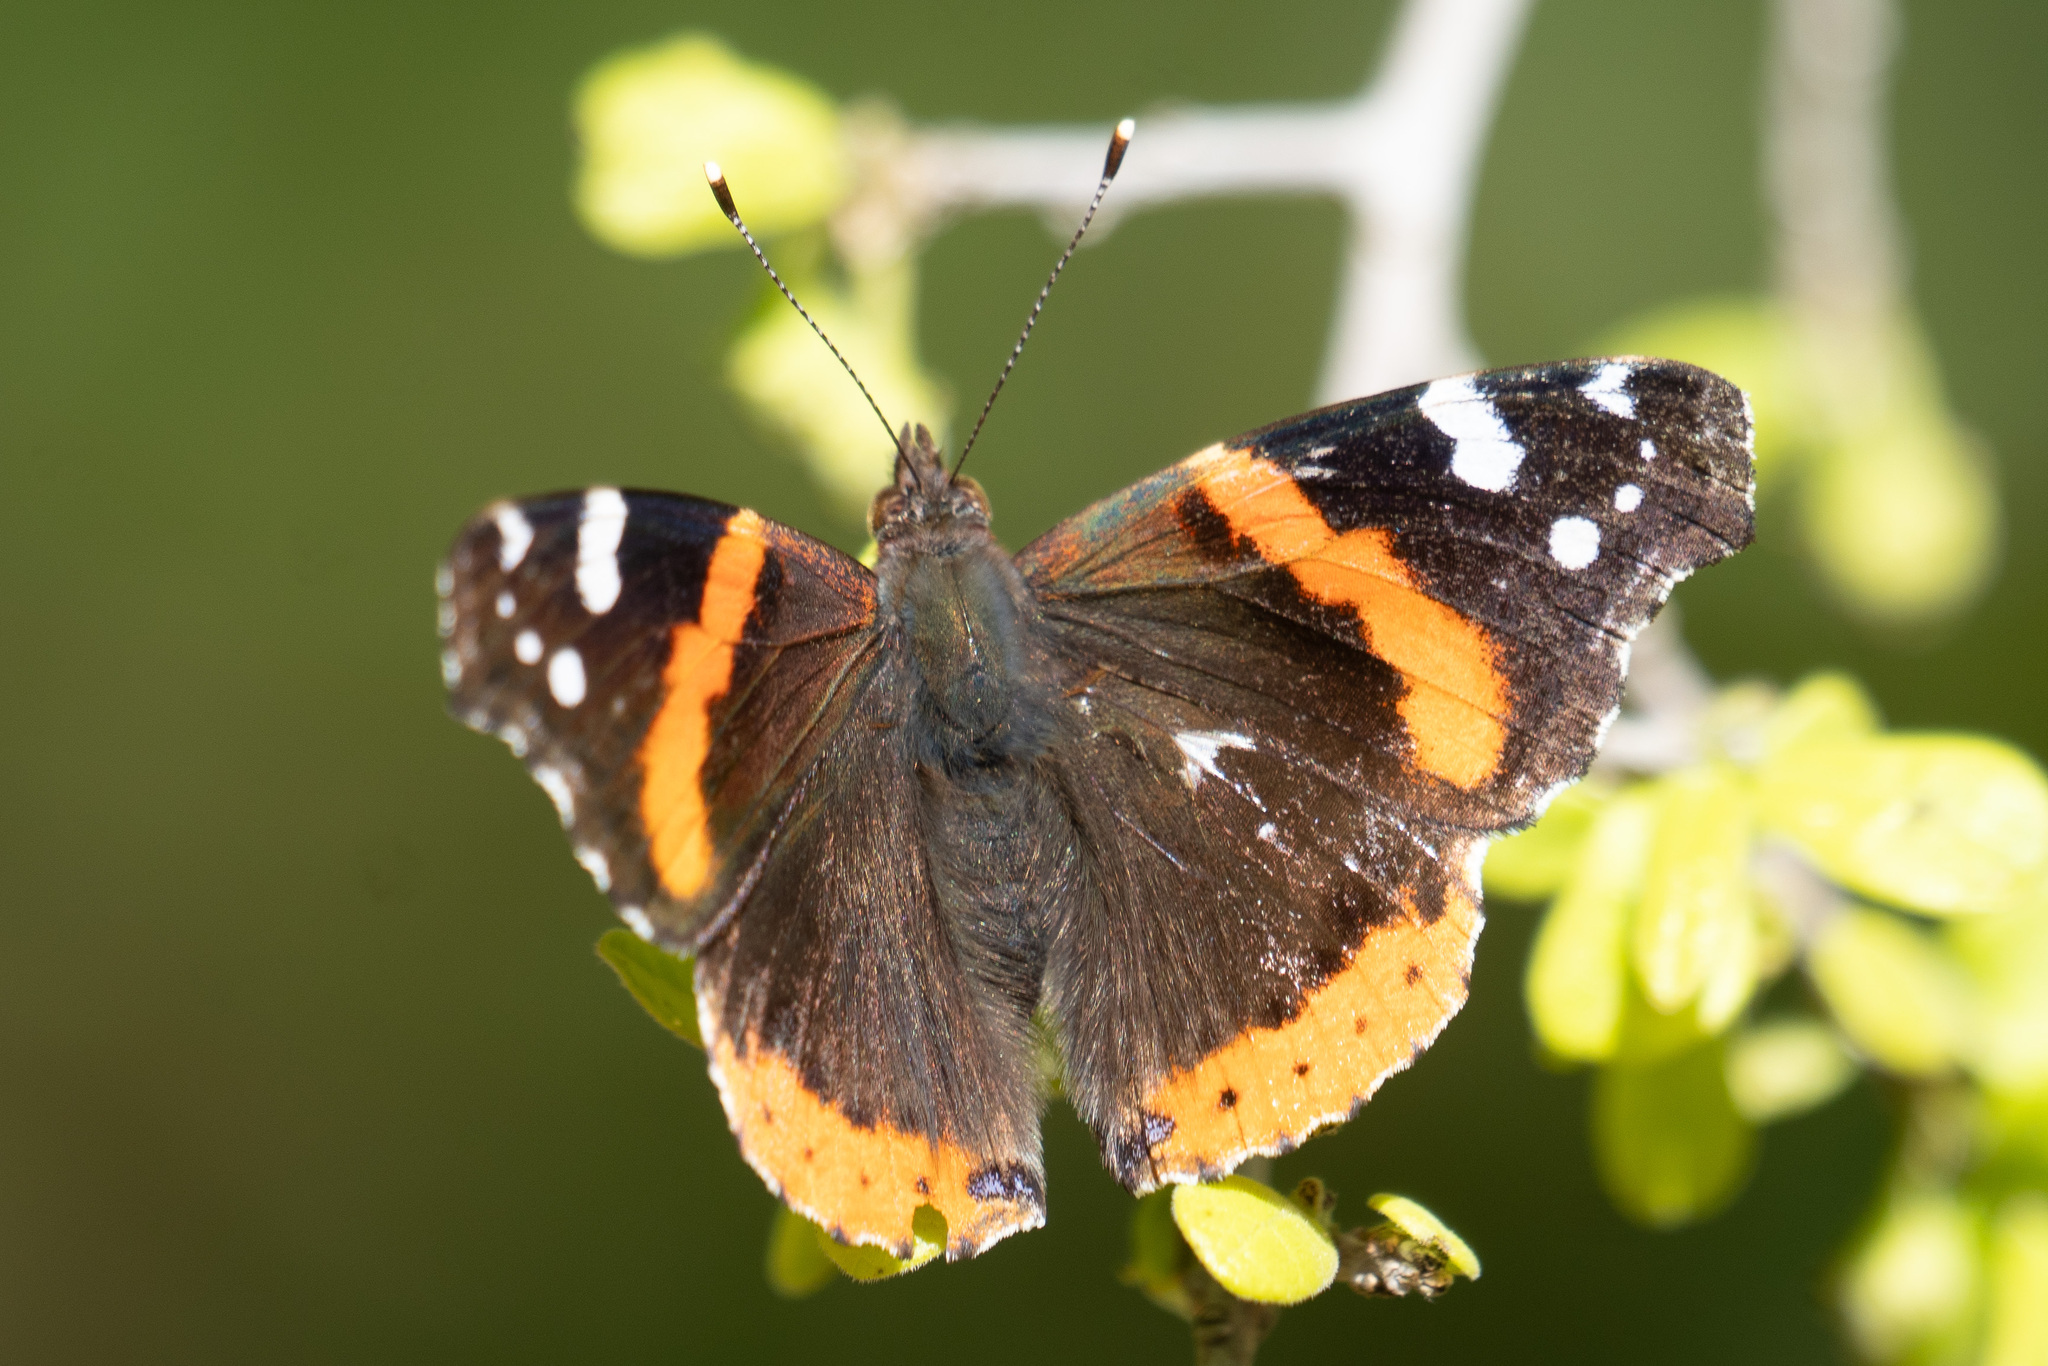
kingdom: Animalia
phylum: Arthropoda
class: Insecta
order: Lepidoptera
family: Nymphalidae
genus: Vanessa
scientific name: Vanessa atalanta
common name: Red admiral
